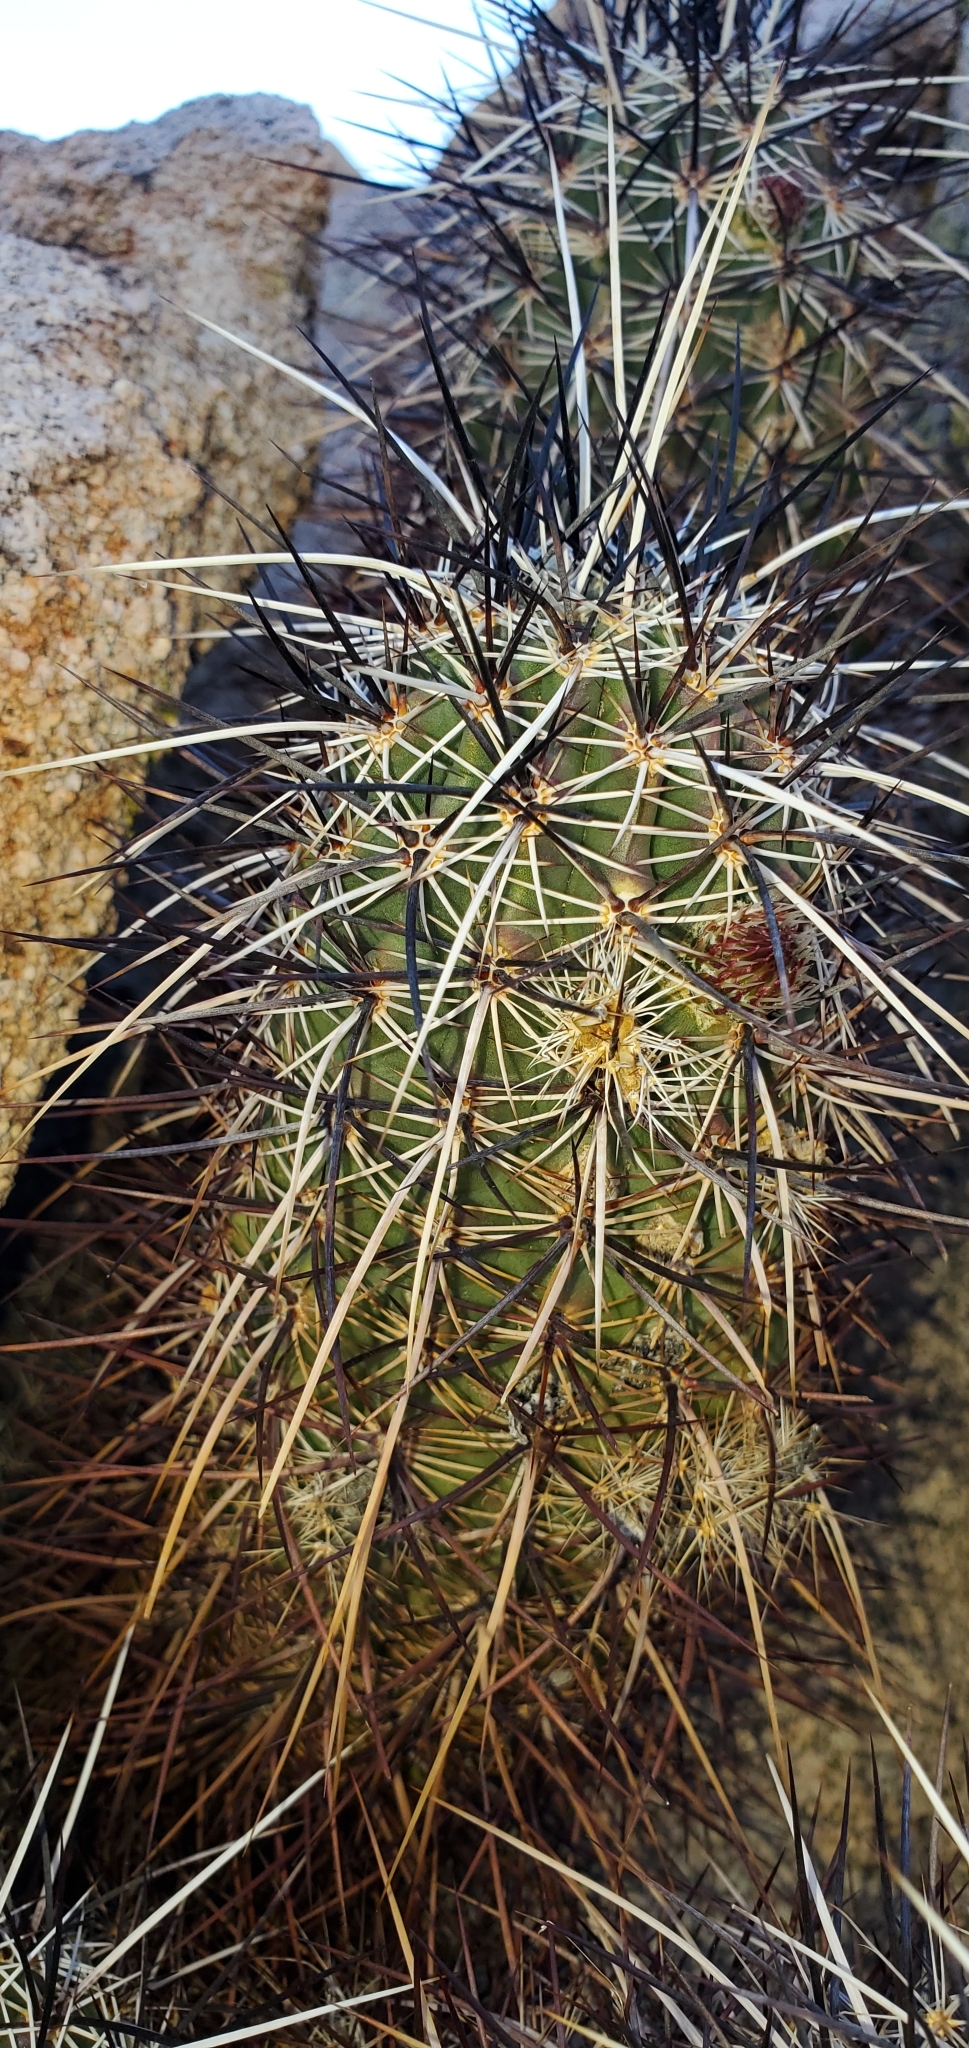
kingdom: Plantae
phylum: Tracheophyta
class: Magnoliopsida
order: Caryophyllales
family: Cactaceae
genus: Echinocereus
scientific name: Echinocereus engelmannii
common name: Engelmann's hedgehog cactus
